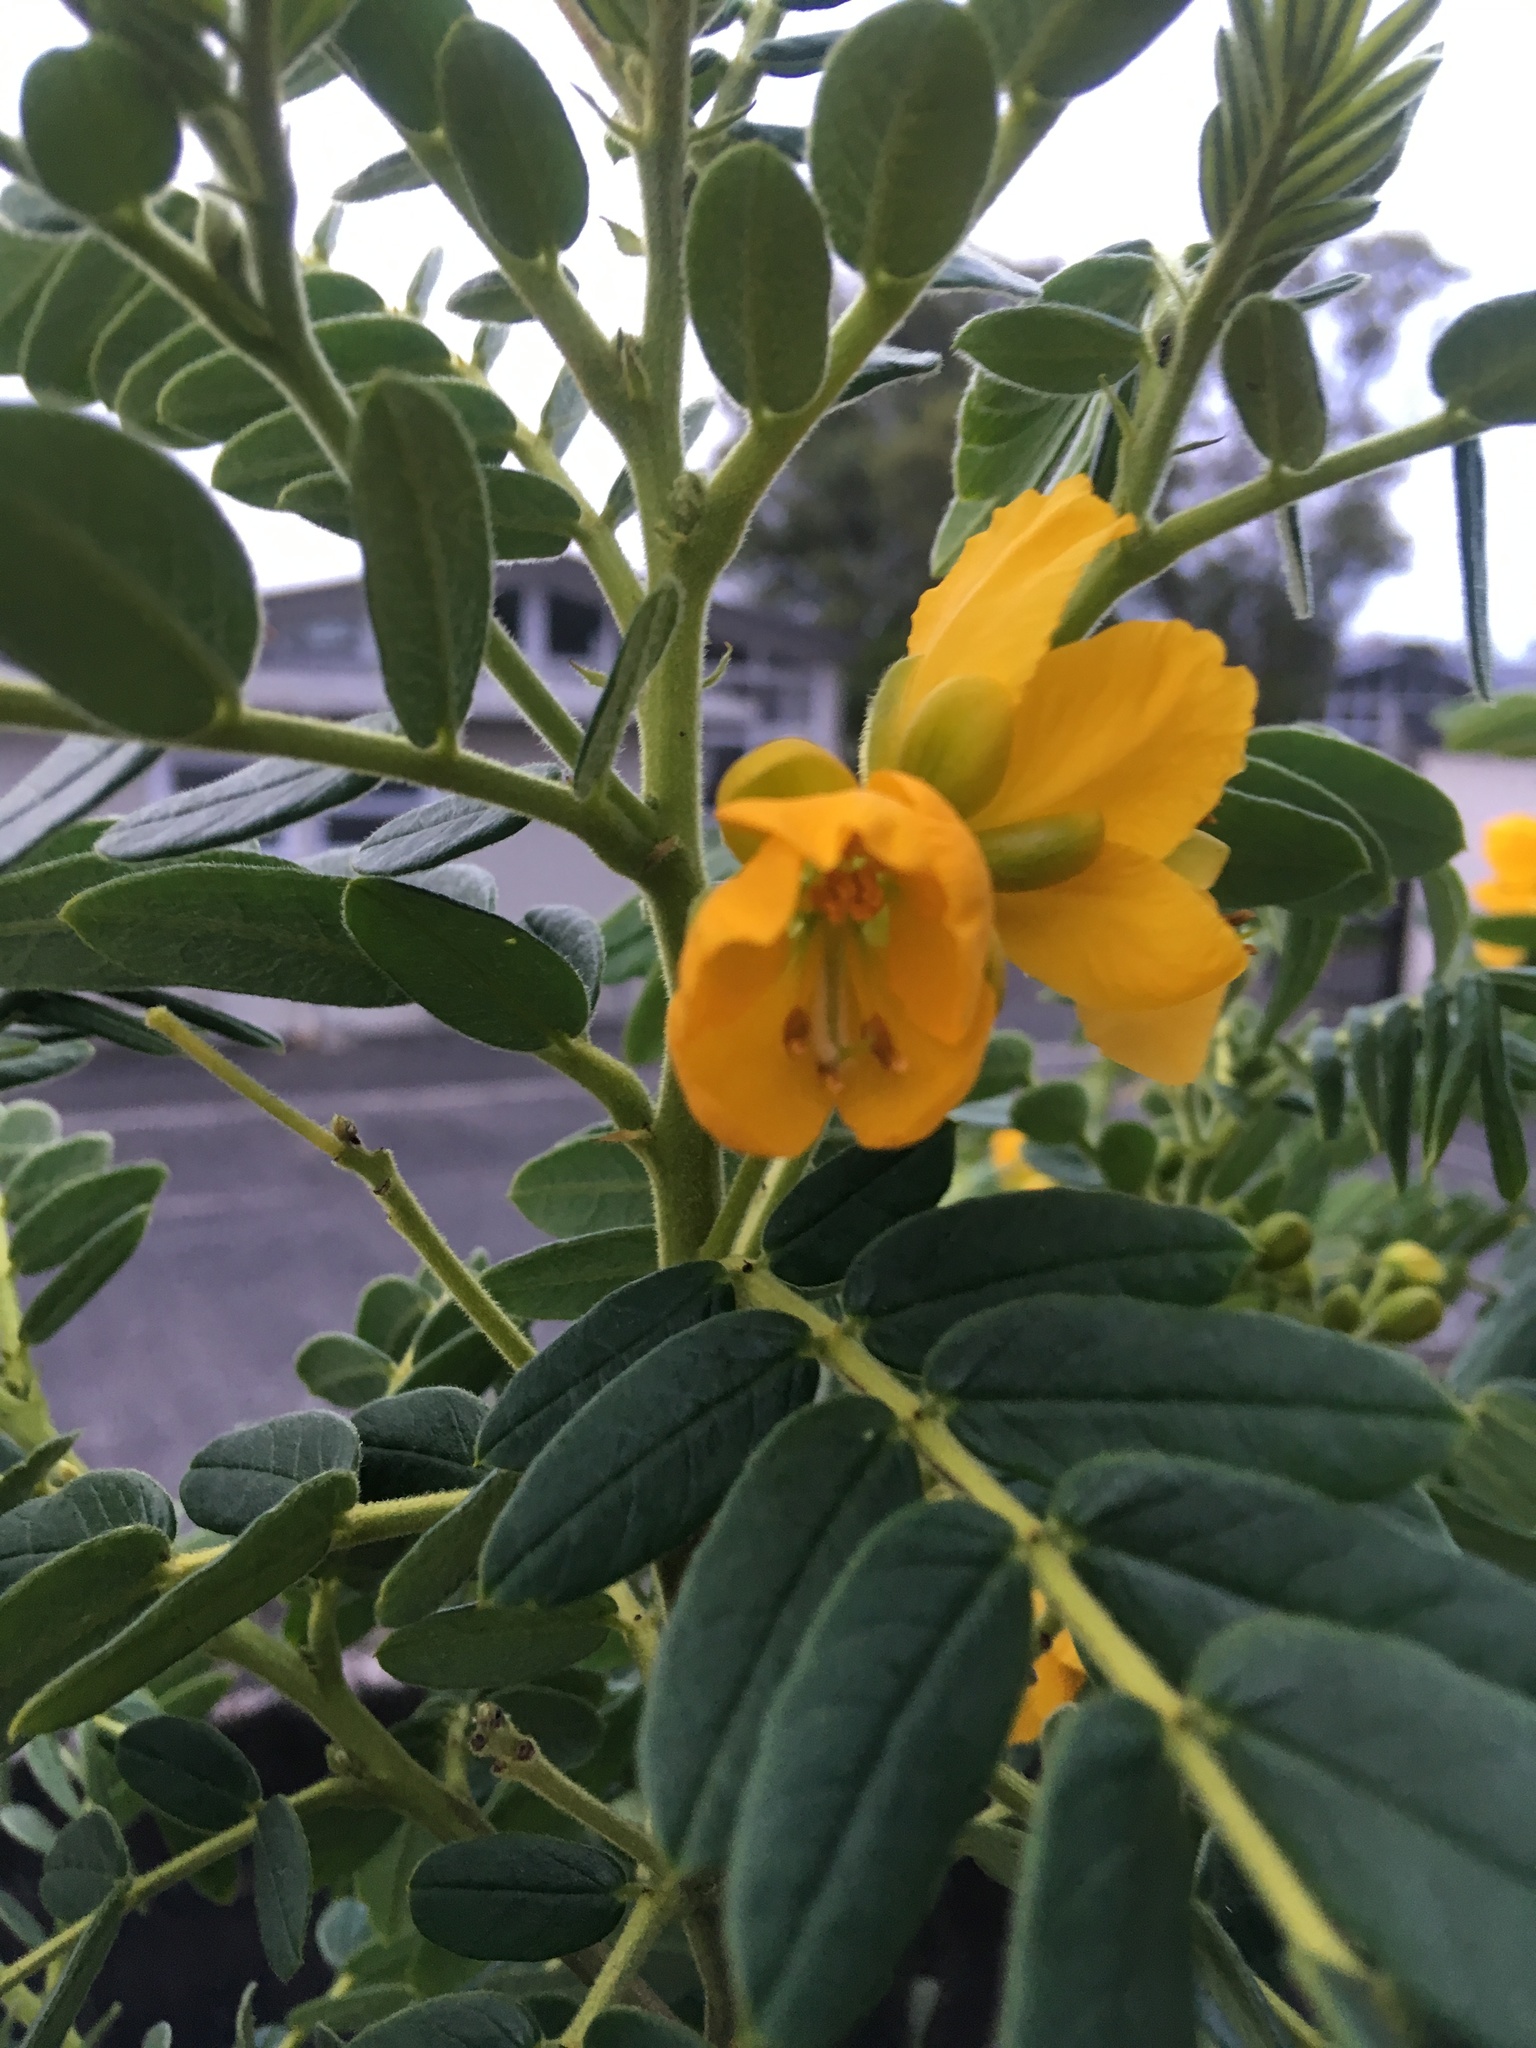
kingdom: Plantae
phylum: Tracheophyta
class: Magnoliopsida
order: Fabales
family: Fabaceae
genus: Senna
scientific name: Senna multiglandulosa
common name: Glandular senna
